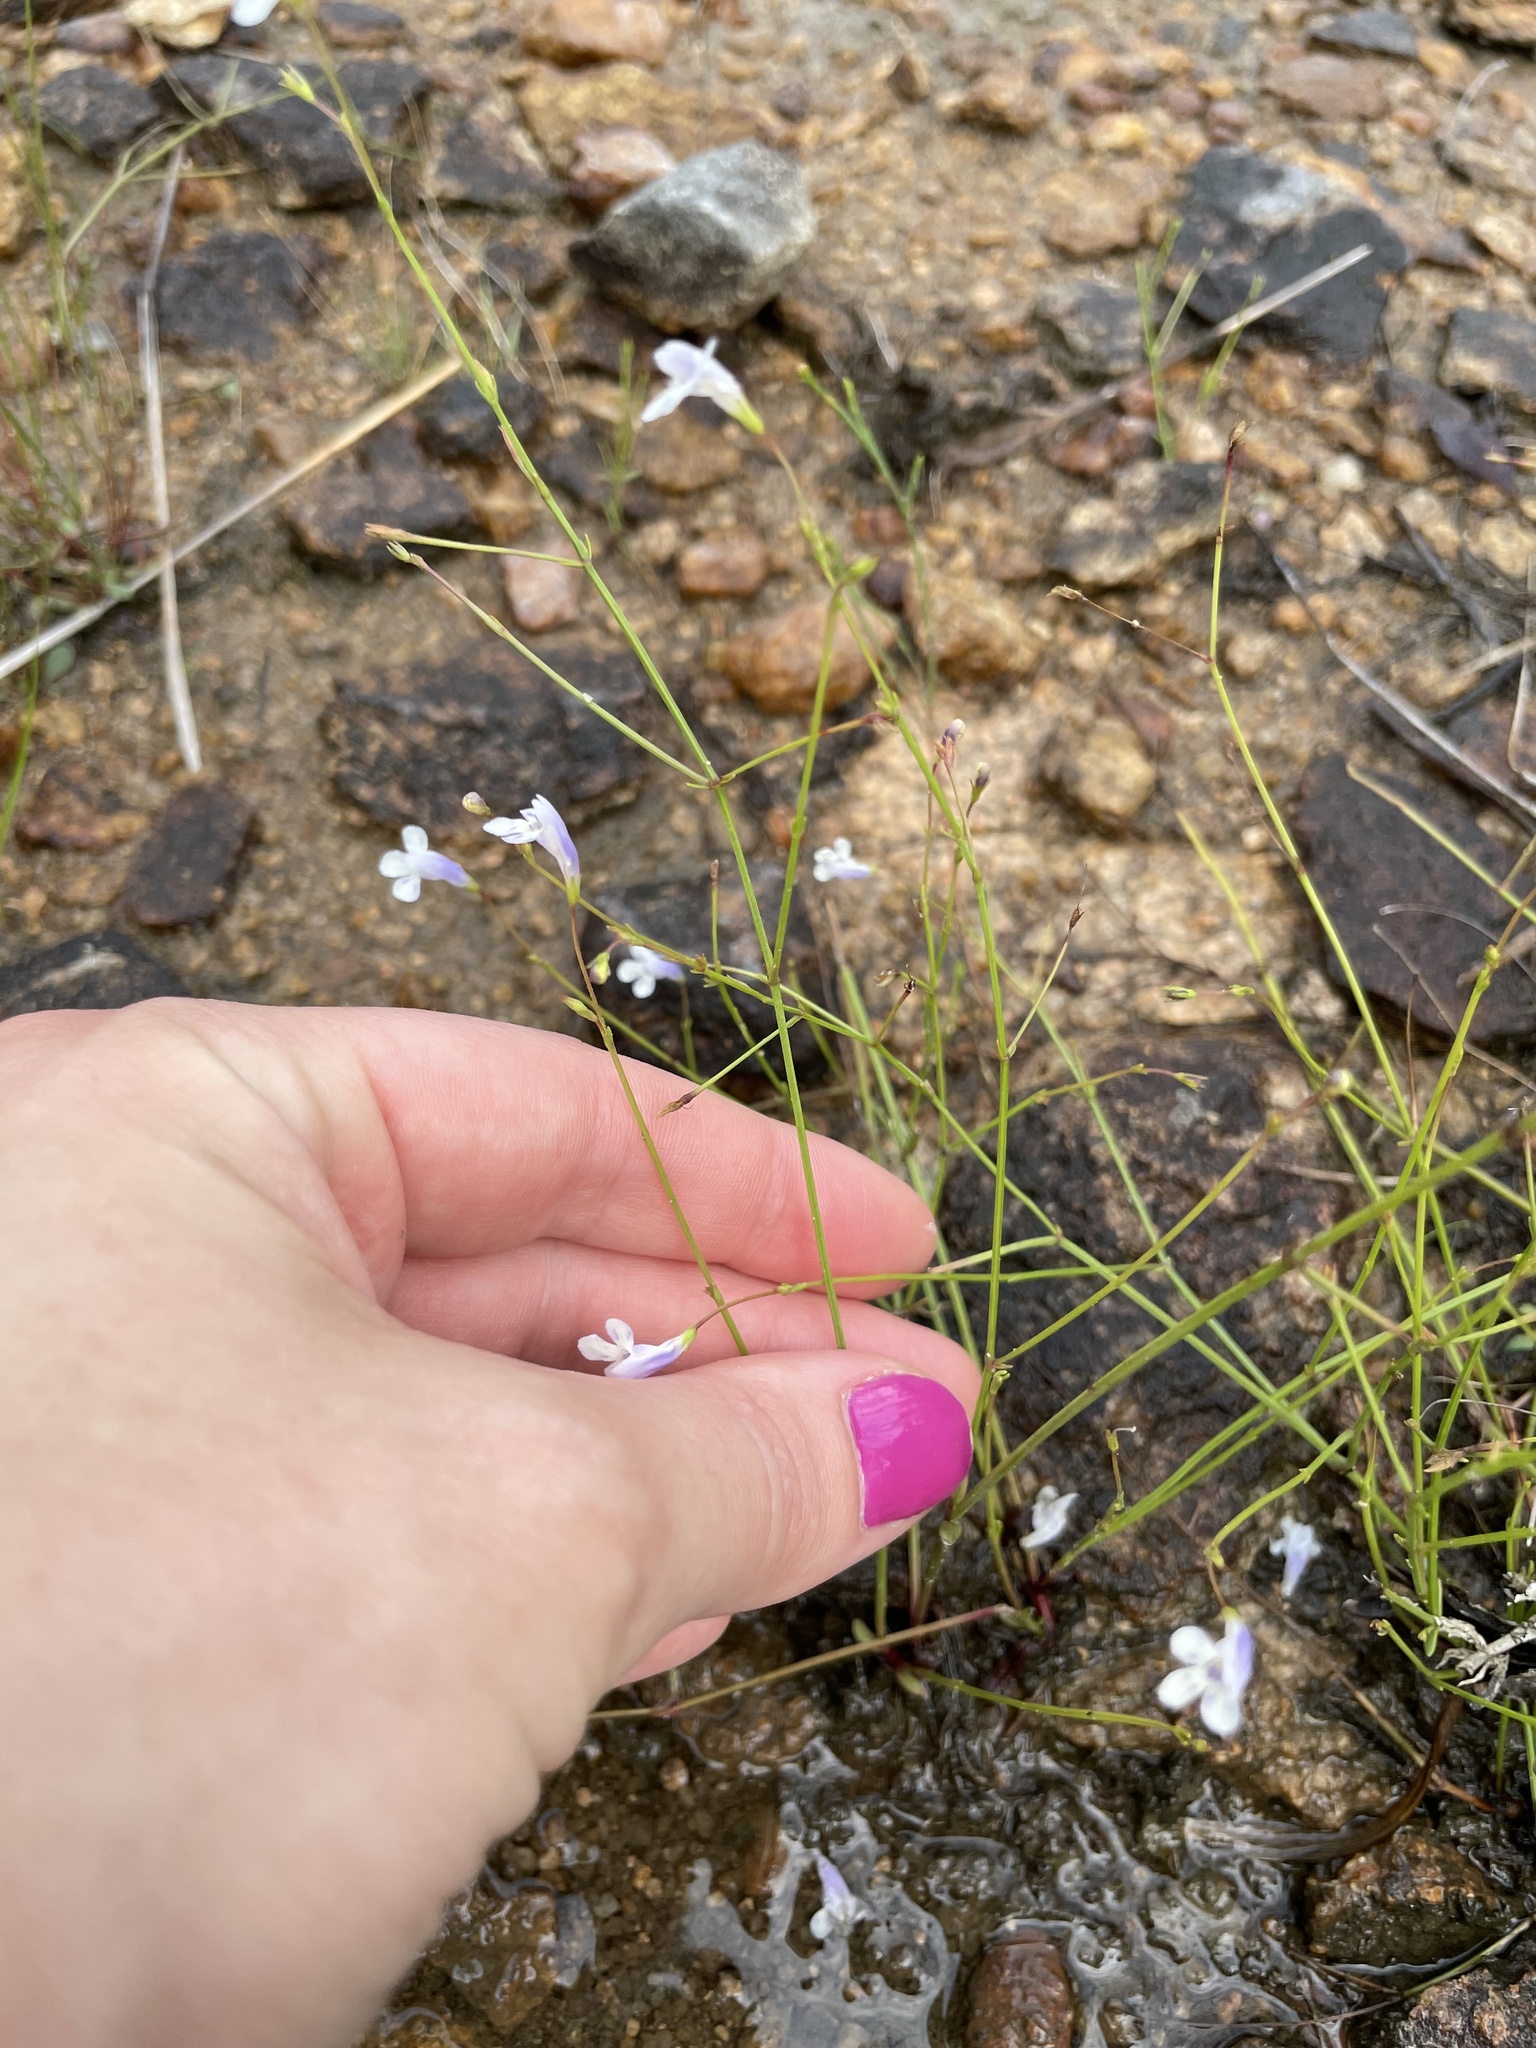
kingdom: Plantae
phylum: Tracheophyta
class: Magnoliopsida
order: Lamiales
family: Linderniaceae
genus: Lindernia
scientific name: Lindernia monticola
